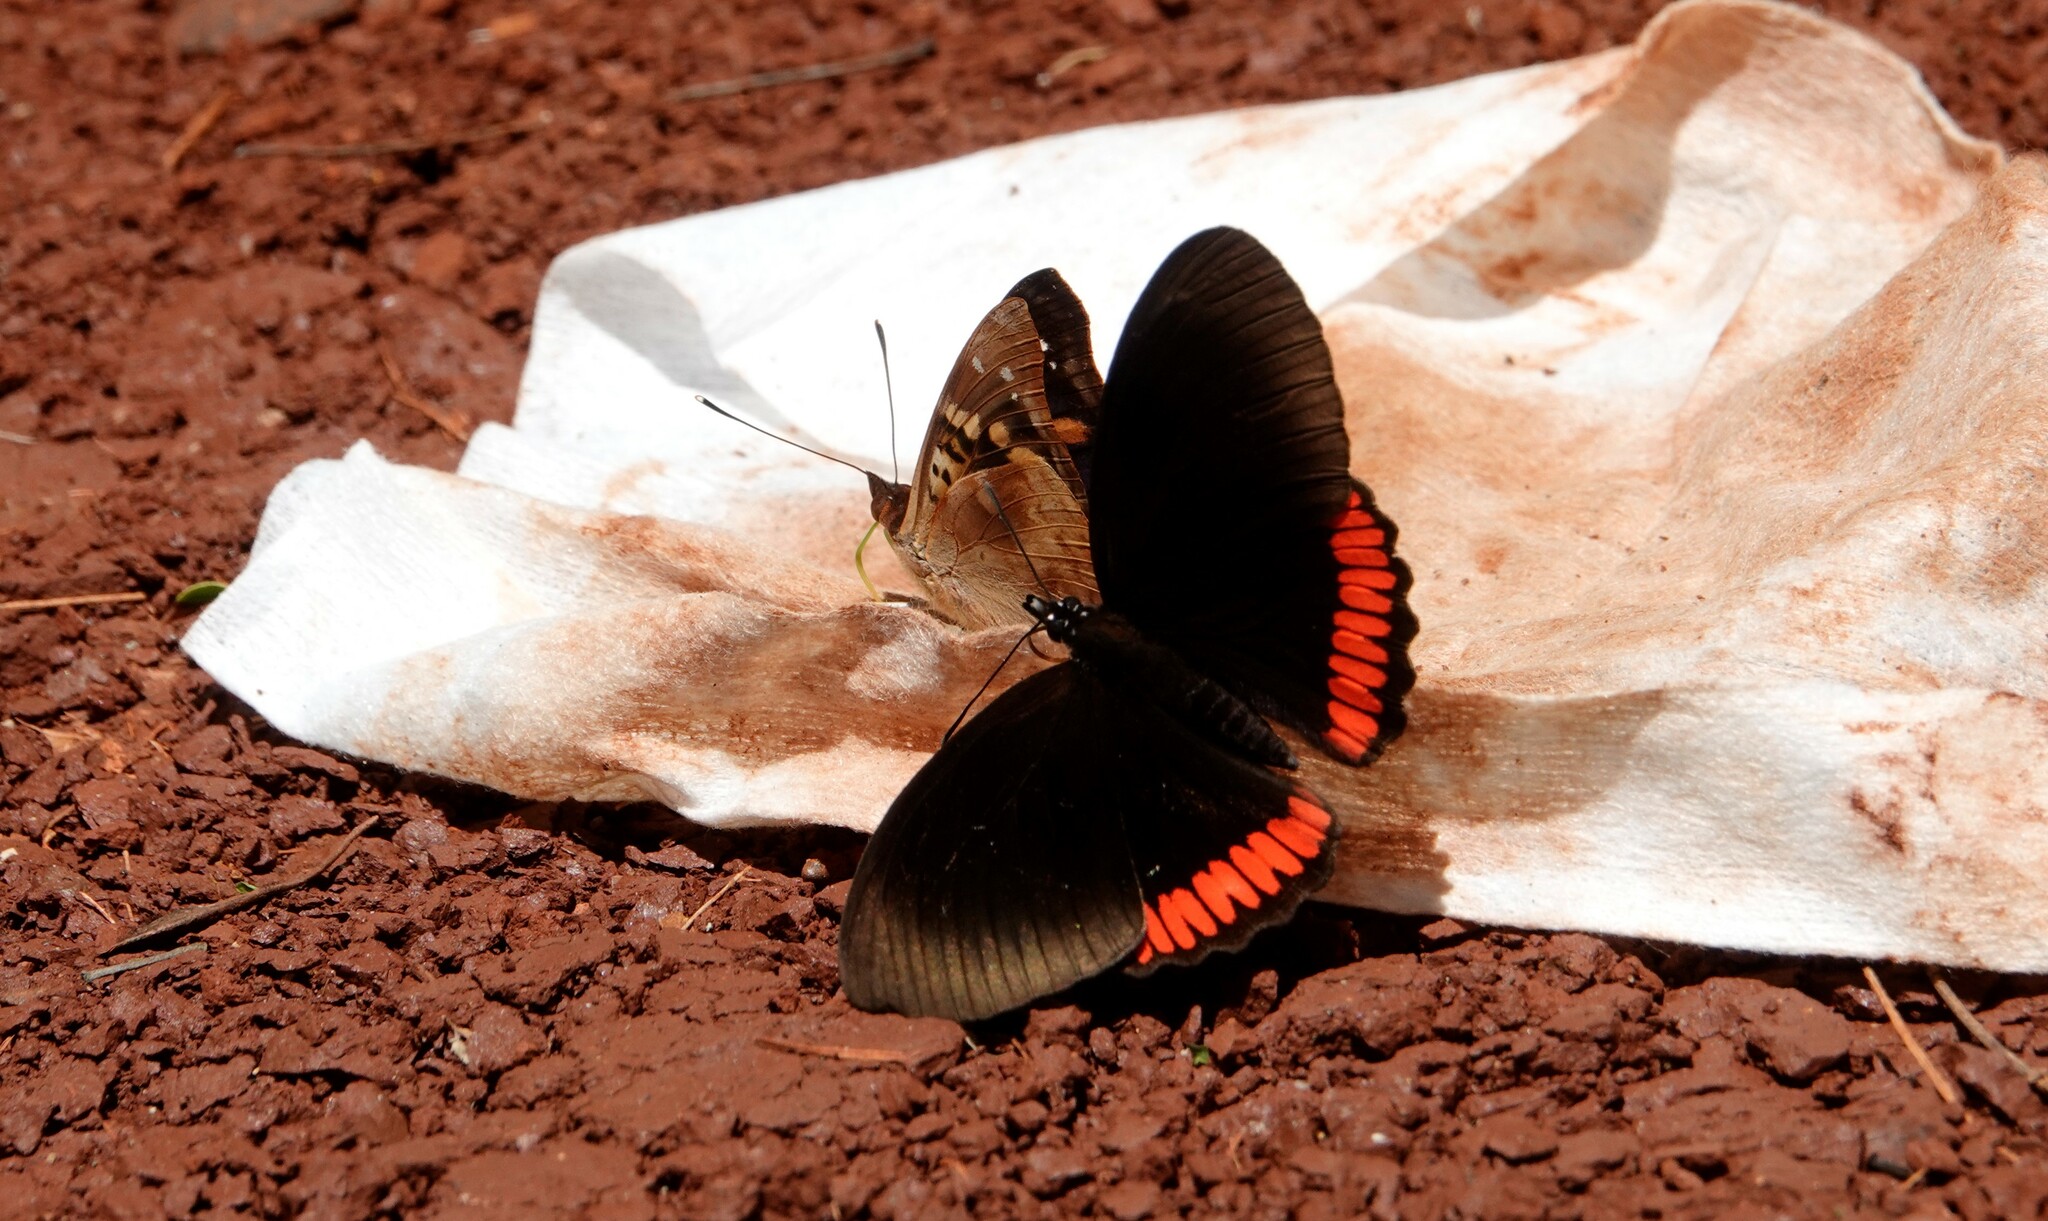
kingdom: Animalia
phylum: Arthropoda
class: Insecta
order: Lepidoptera
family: Sesiidae
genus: Sesia
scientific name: Sesia Biblis hyperia
